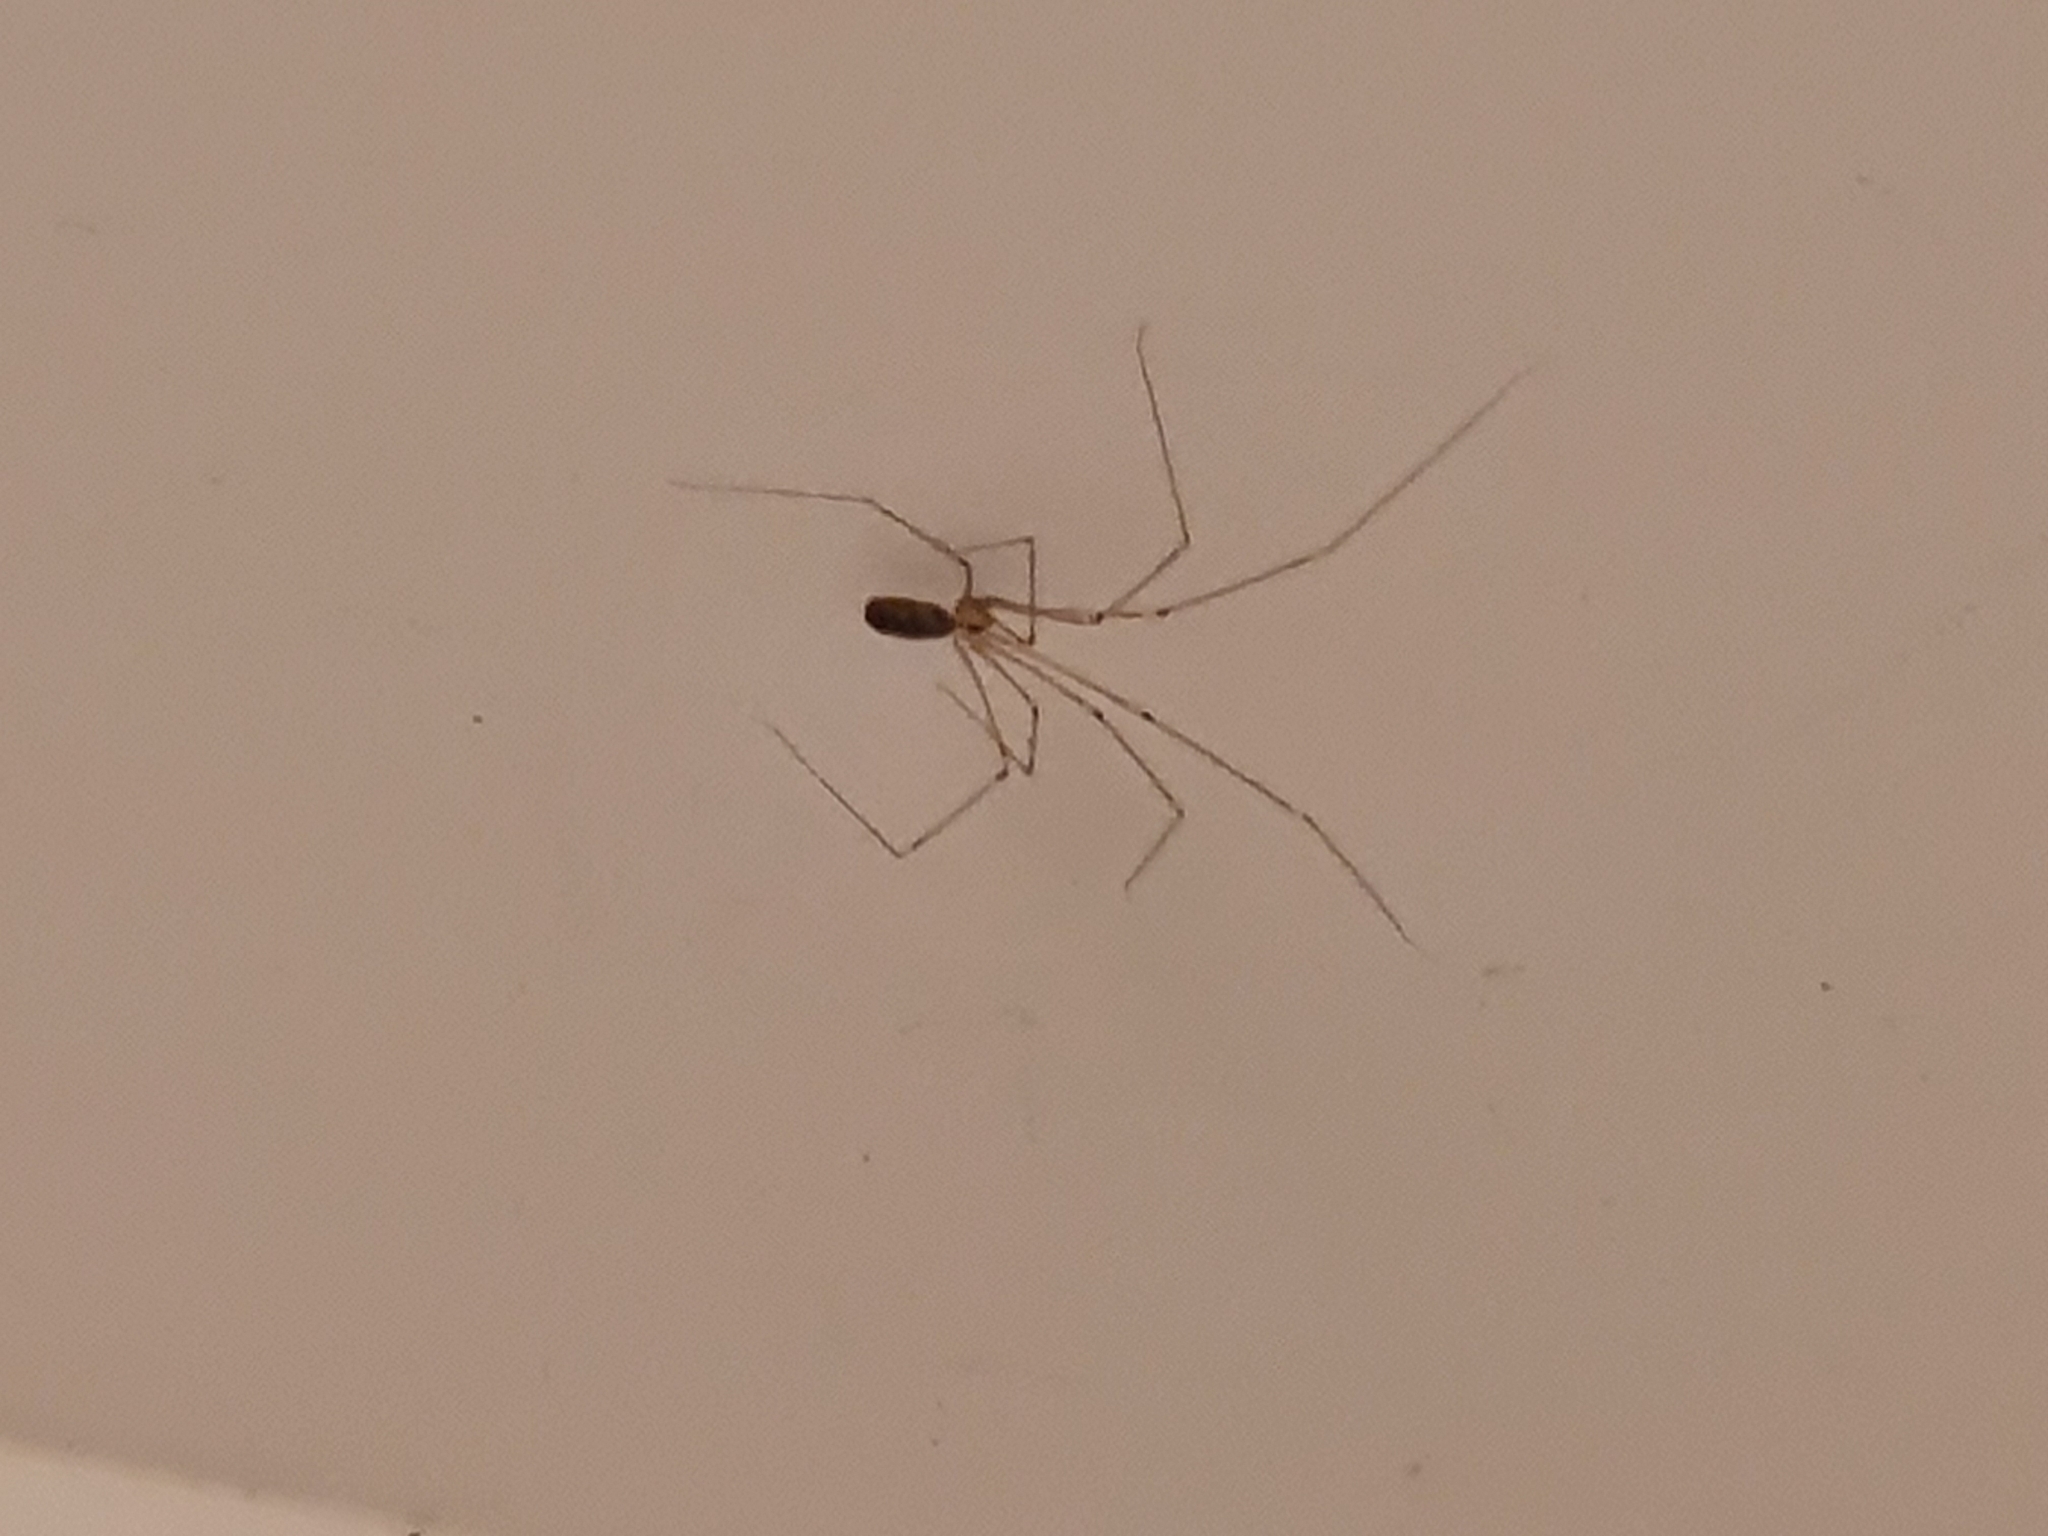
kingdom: Animalia
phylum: Arthropoda
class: Arachnida
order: Araneae
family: Pholcidae
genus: Pholcus
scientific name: Pholcus phalangioides
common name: Longbodied cellar spider
